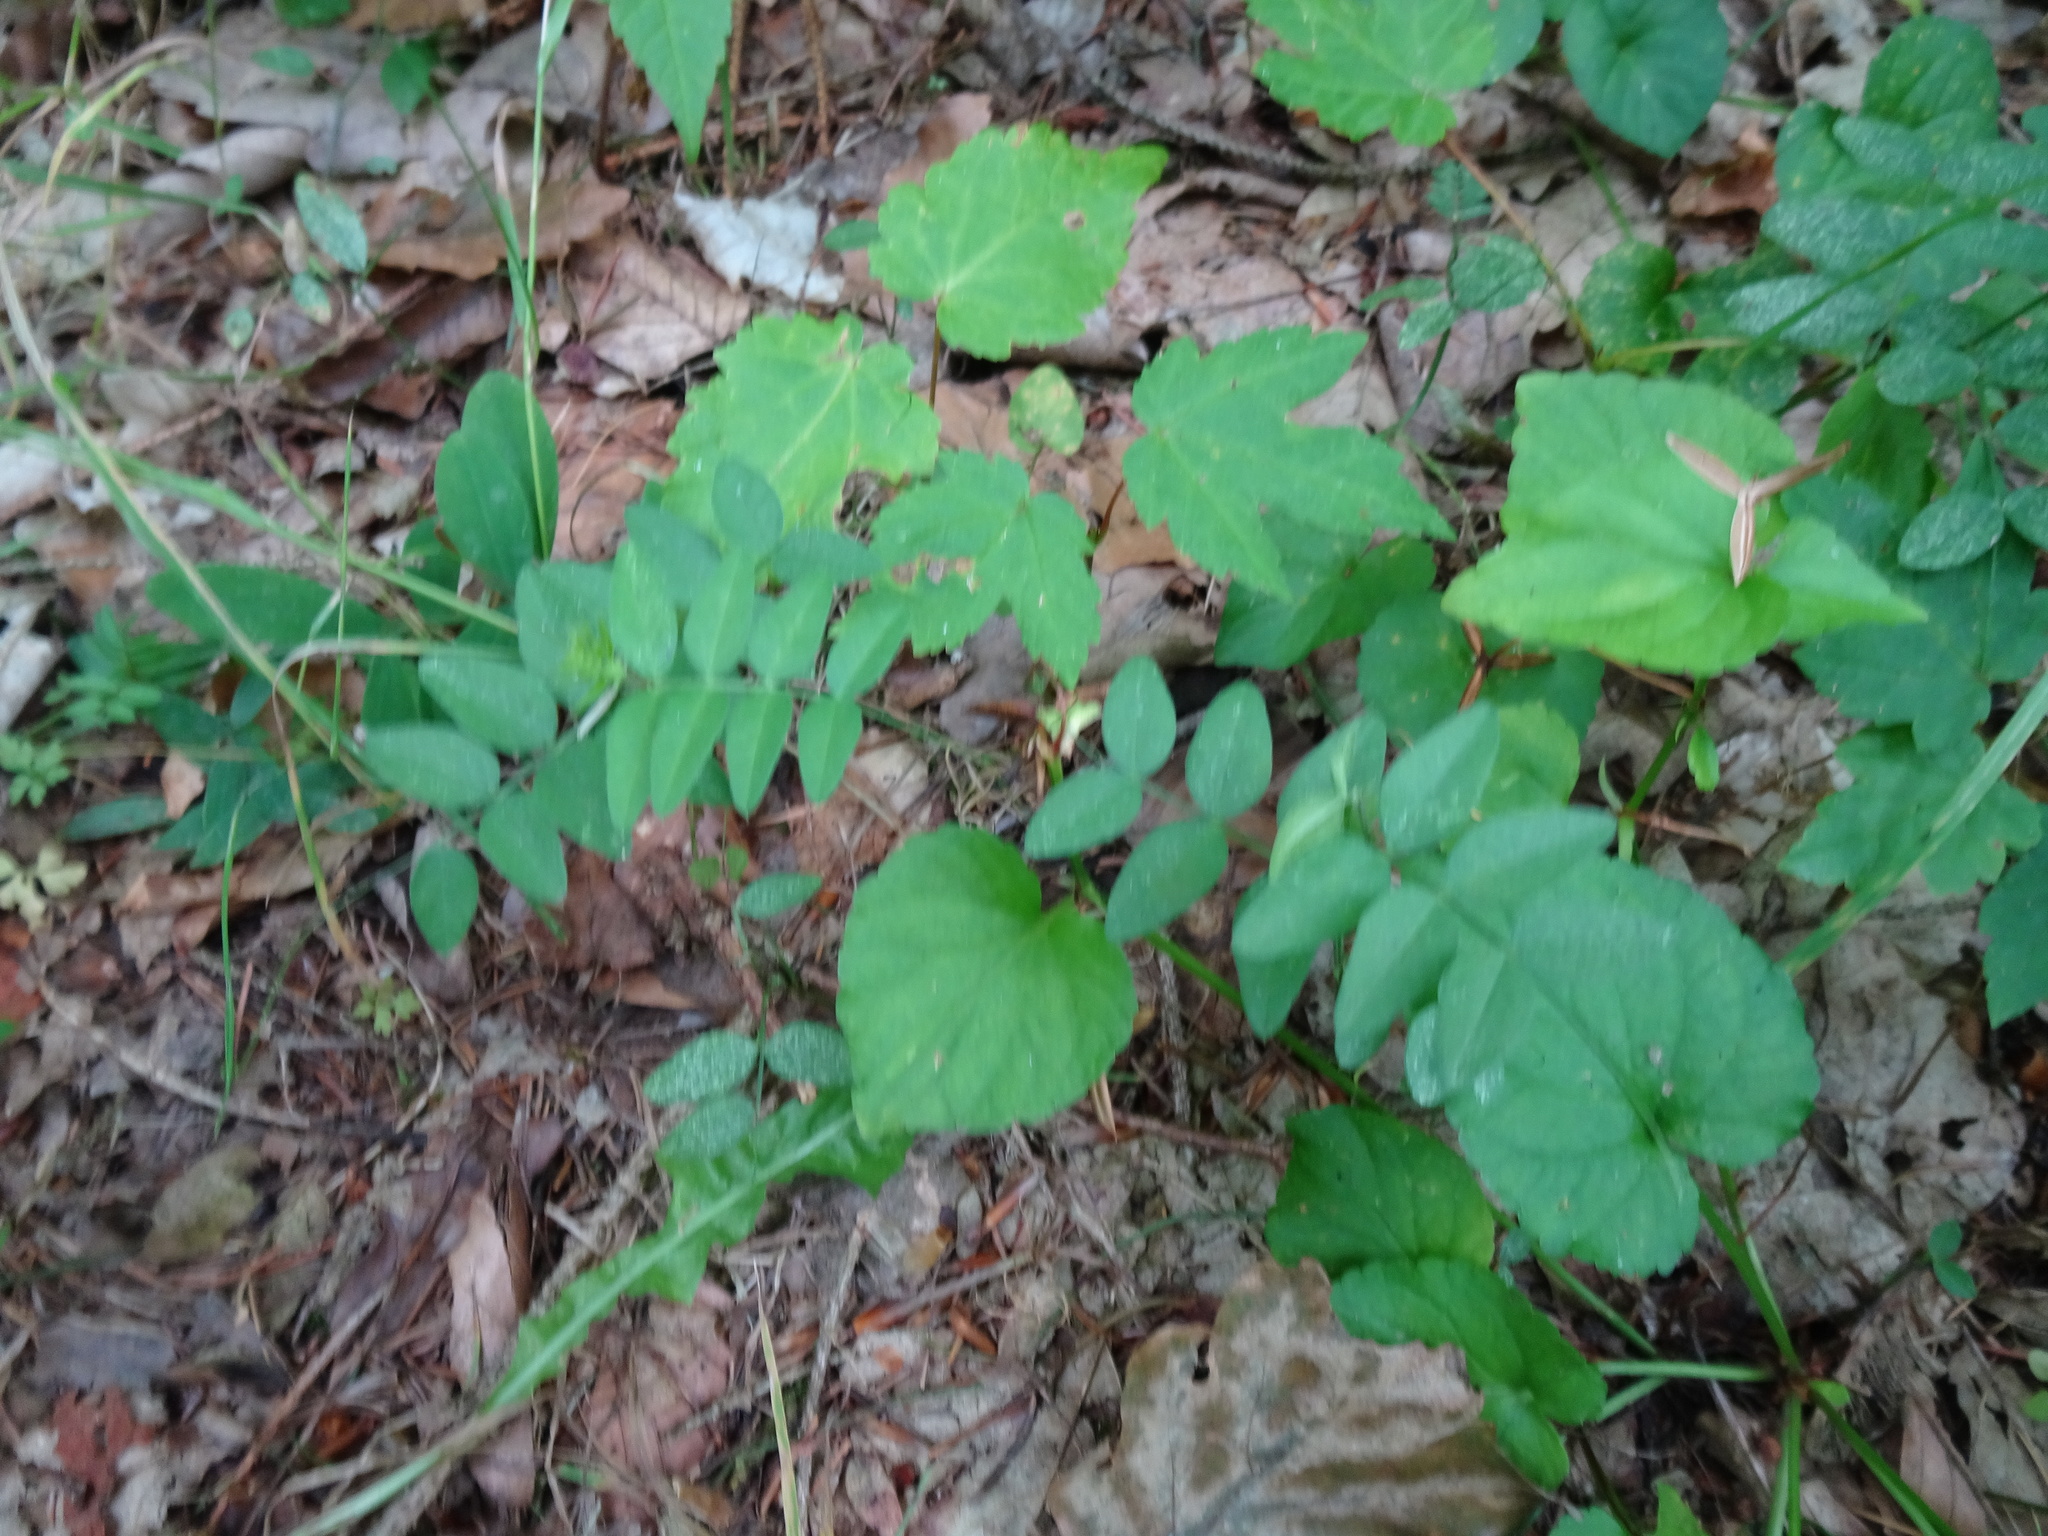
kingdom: Plantae
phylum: Tracheophyta
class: Magnoliopsida
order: Fabales
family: Fabaceae
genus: Vicia
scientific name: Vicia sepium
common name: Bush vetch
